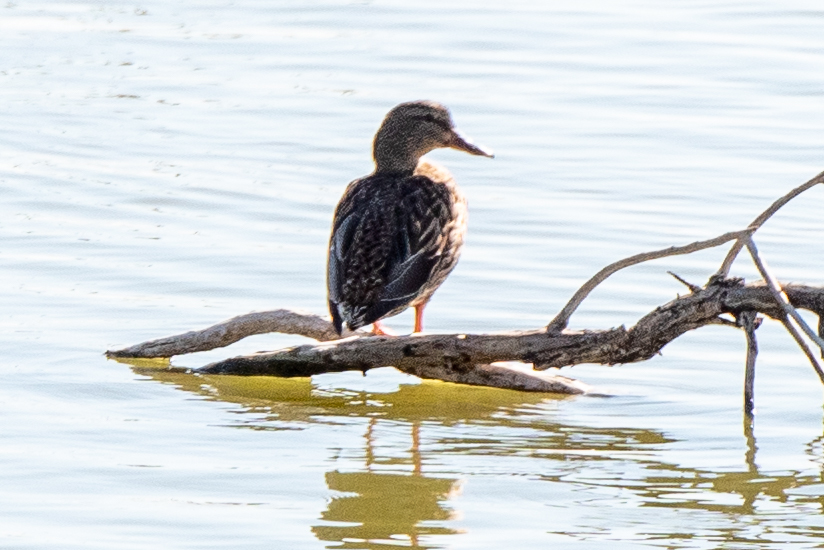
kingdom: Animalia
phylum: Chordata
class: Aves
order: Anseriformes
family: Anatidae
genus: Anas
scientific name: Anas platyrhynchos
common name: Mallard
